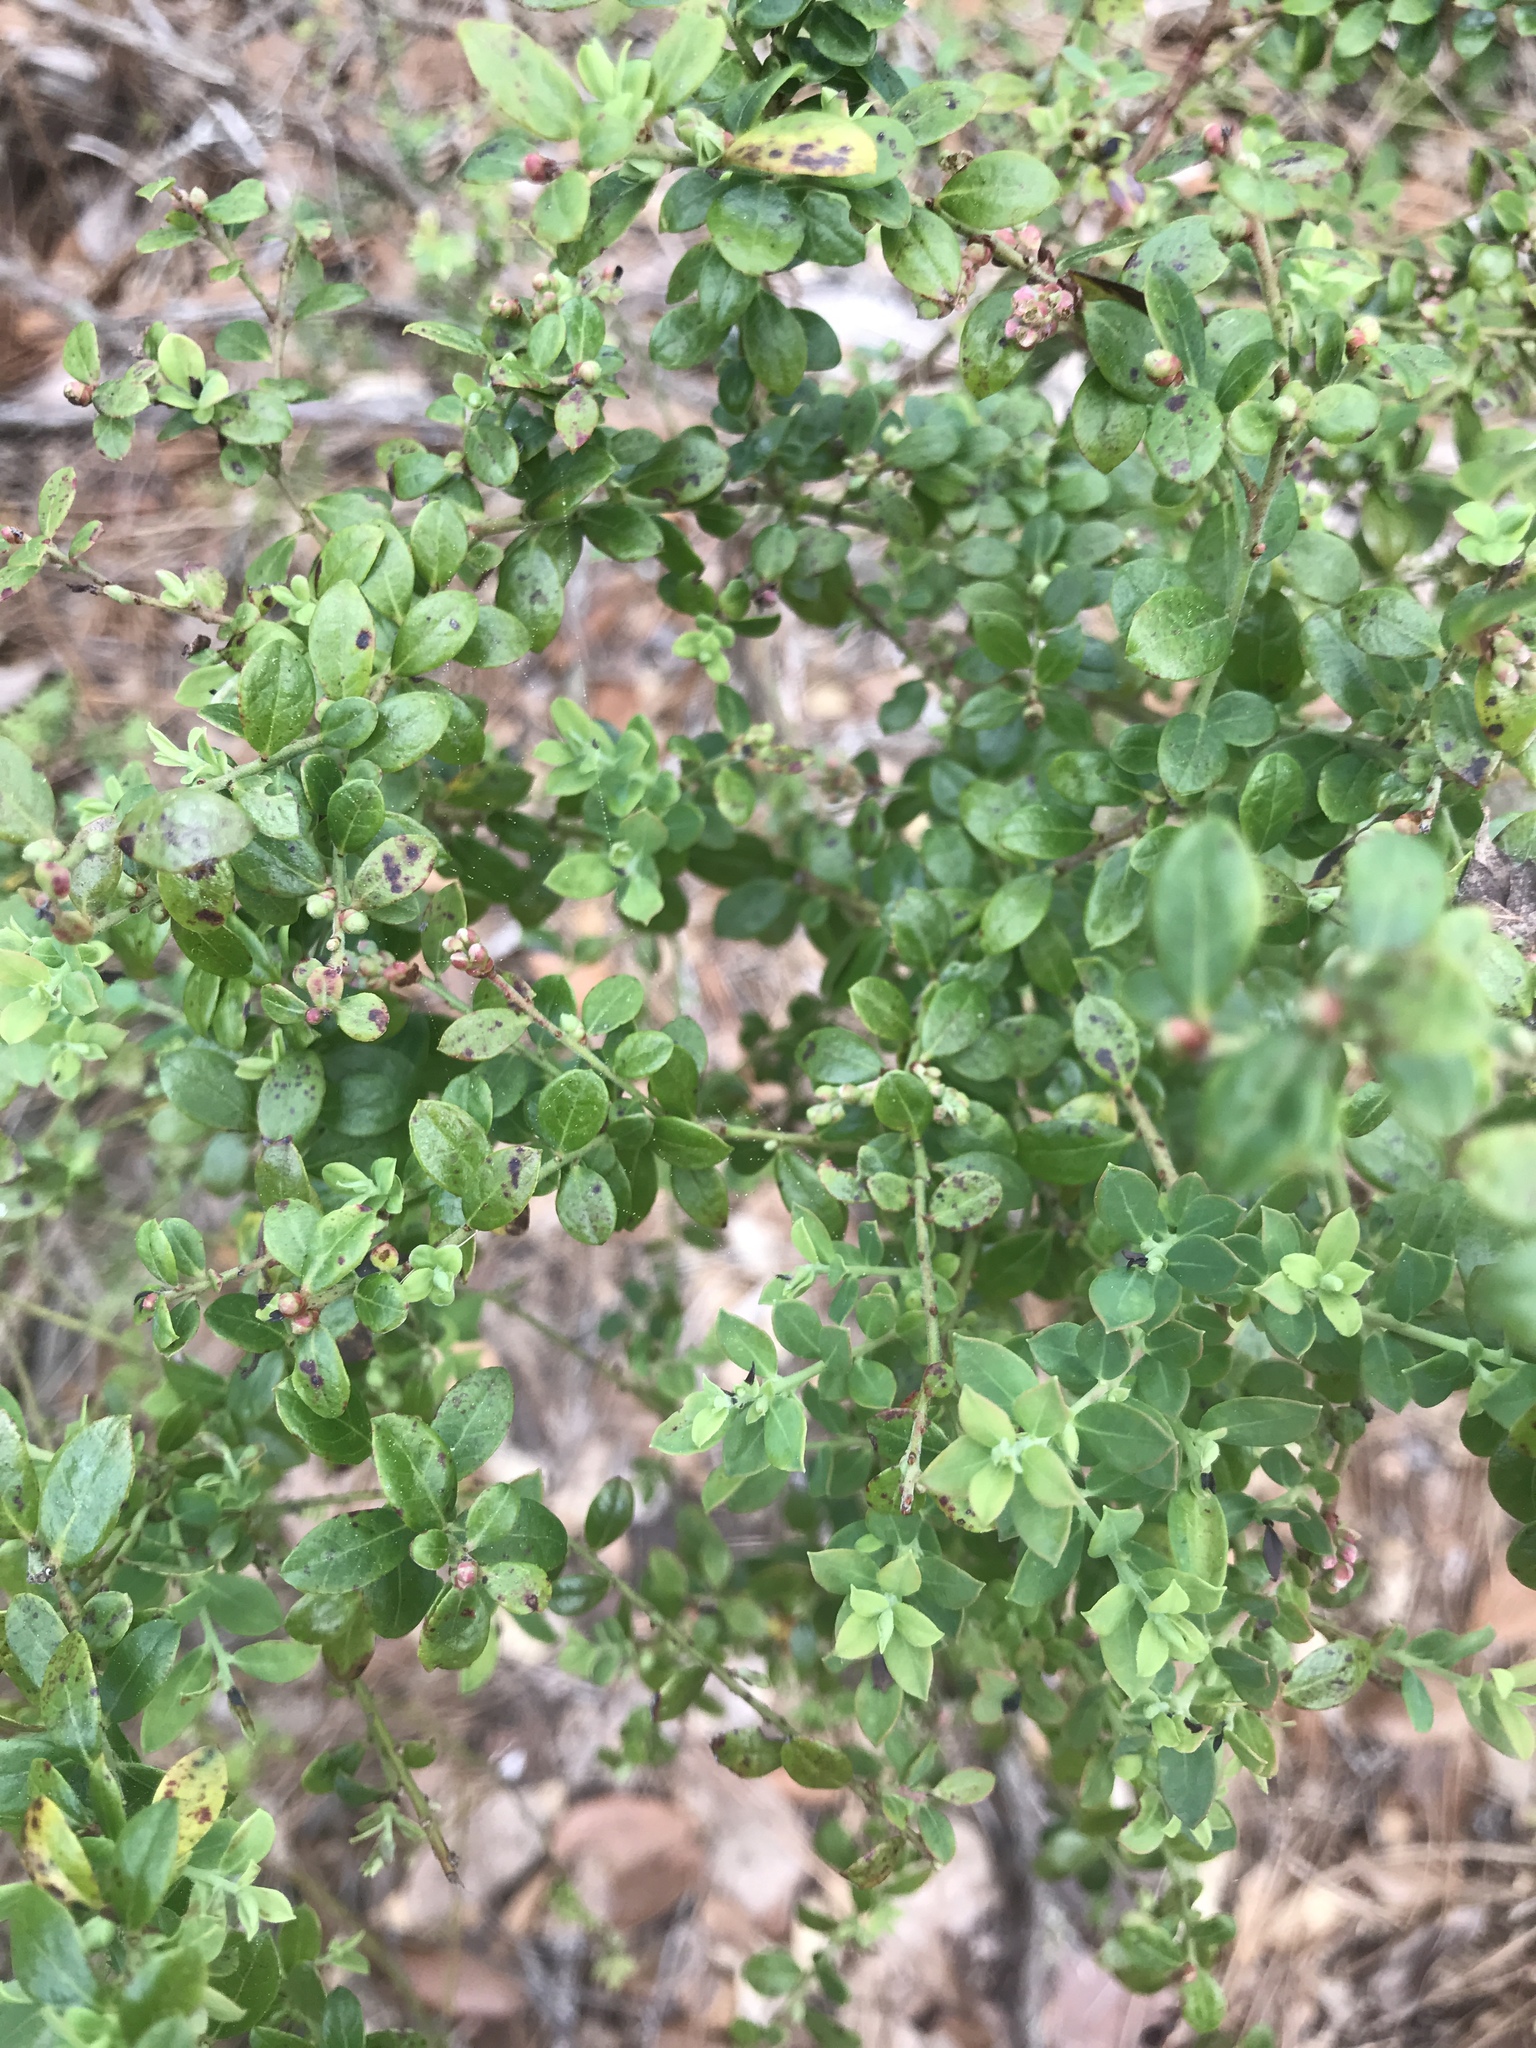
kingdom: Plantae
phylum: Tracheophyta
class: Magnoliopsida
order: Ericales
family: Ericaceae
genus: Vaccinium
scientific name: Vaccinium darrowii
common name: Darrow's blueberry
